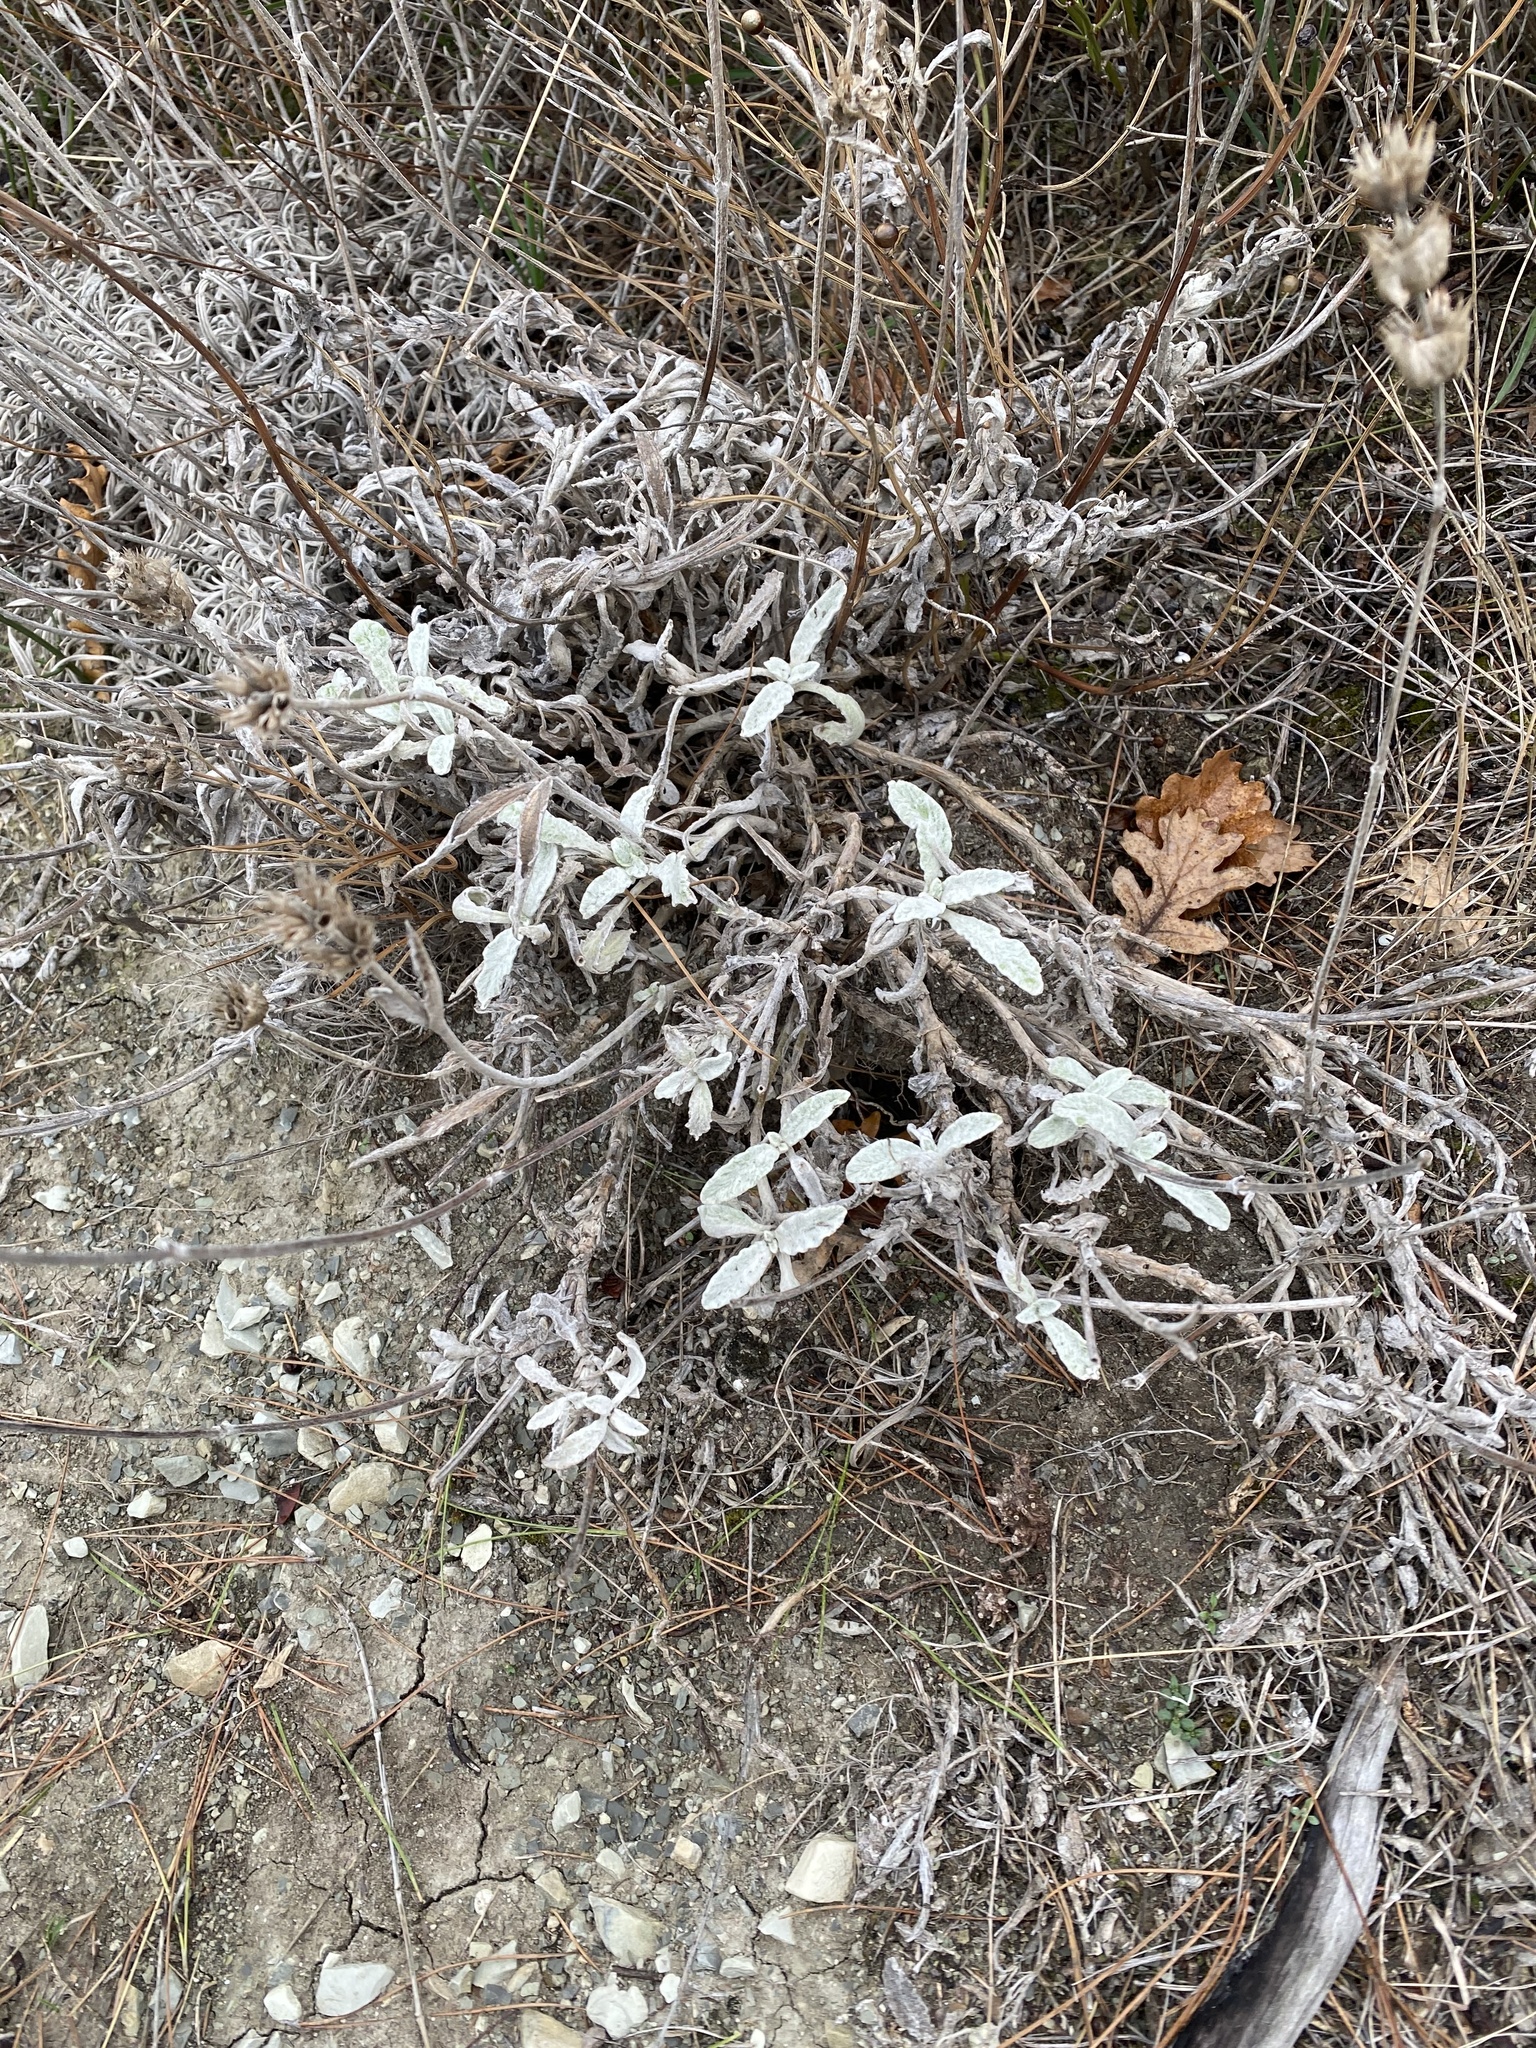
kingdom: Plantae
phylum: Tracheophyta
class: Magnoliopsida
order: Lamiales
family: Lamiaceae
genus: Sideritis
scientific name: Sideritis euxina
